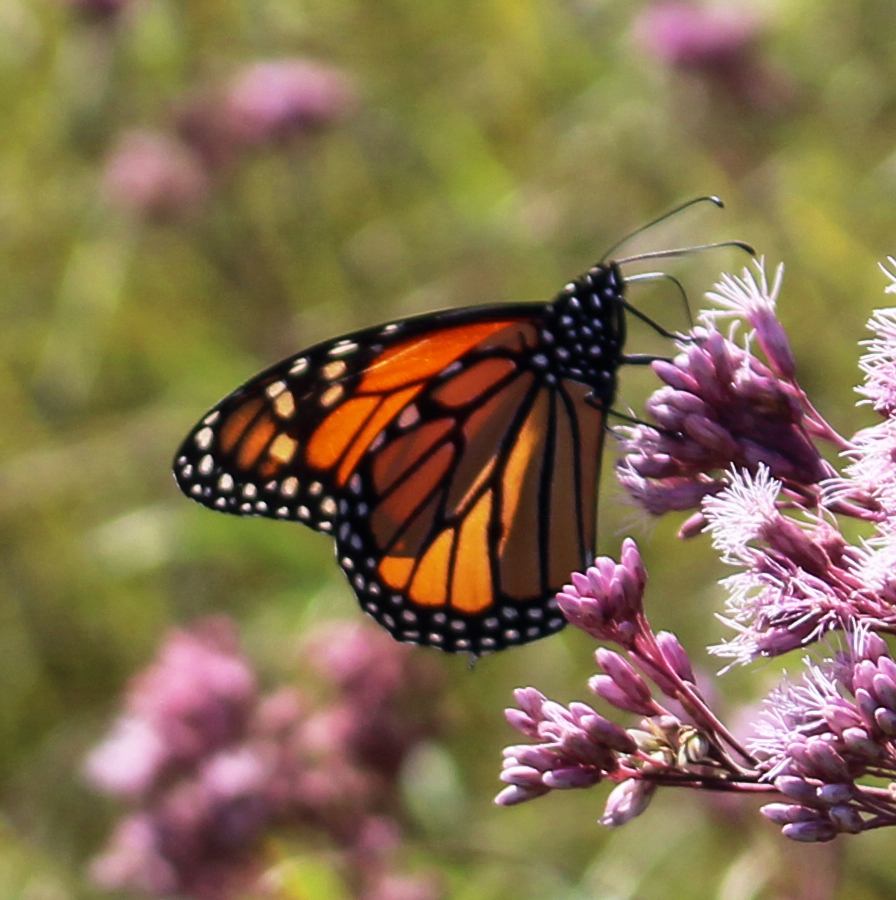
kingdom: Animalia
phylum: Arthropoda
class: Insecta
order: Lepidoptera
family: Nymphalidae
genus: Danaus
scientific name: Danaus plexippus
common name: Monarch
